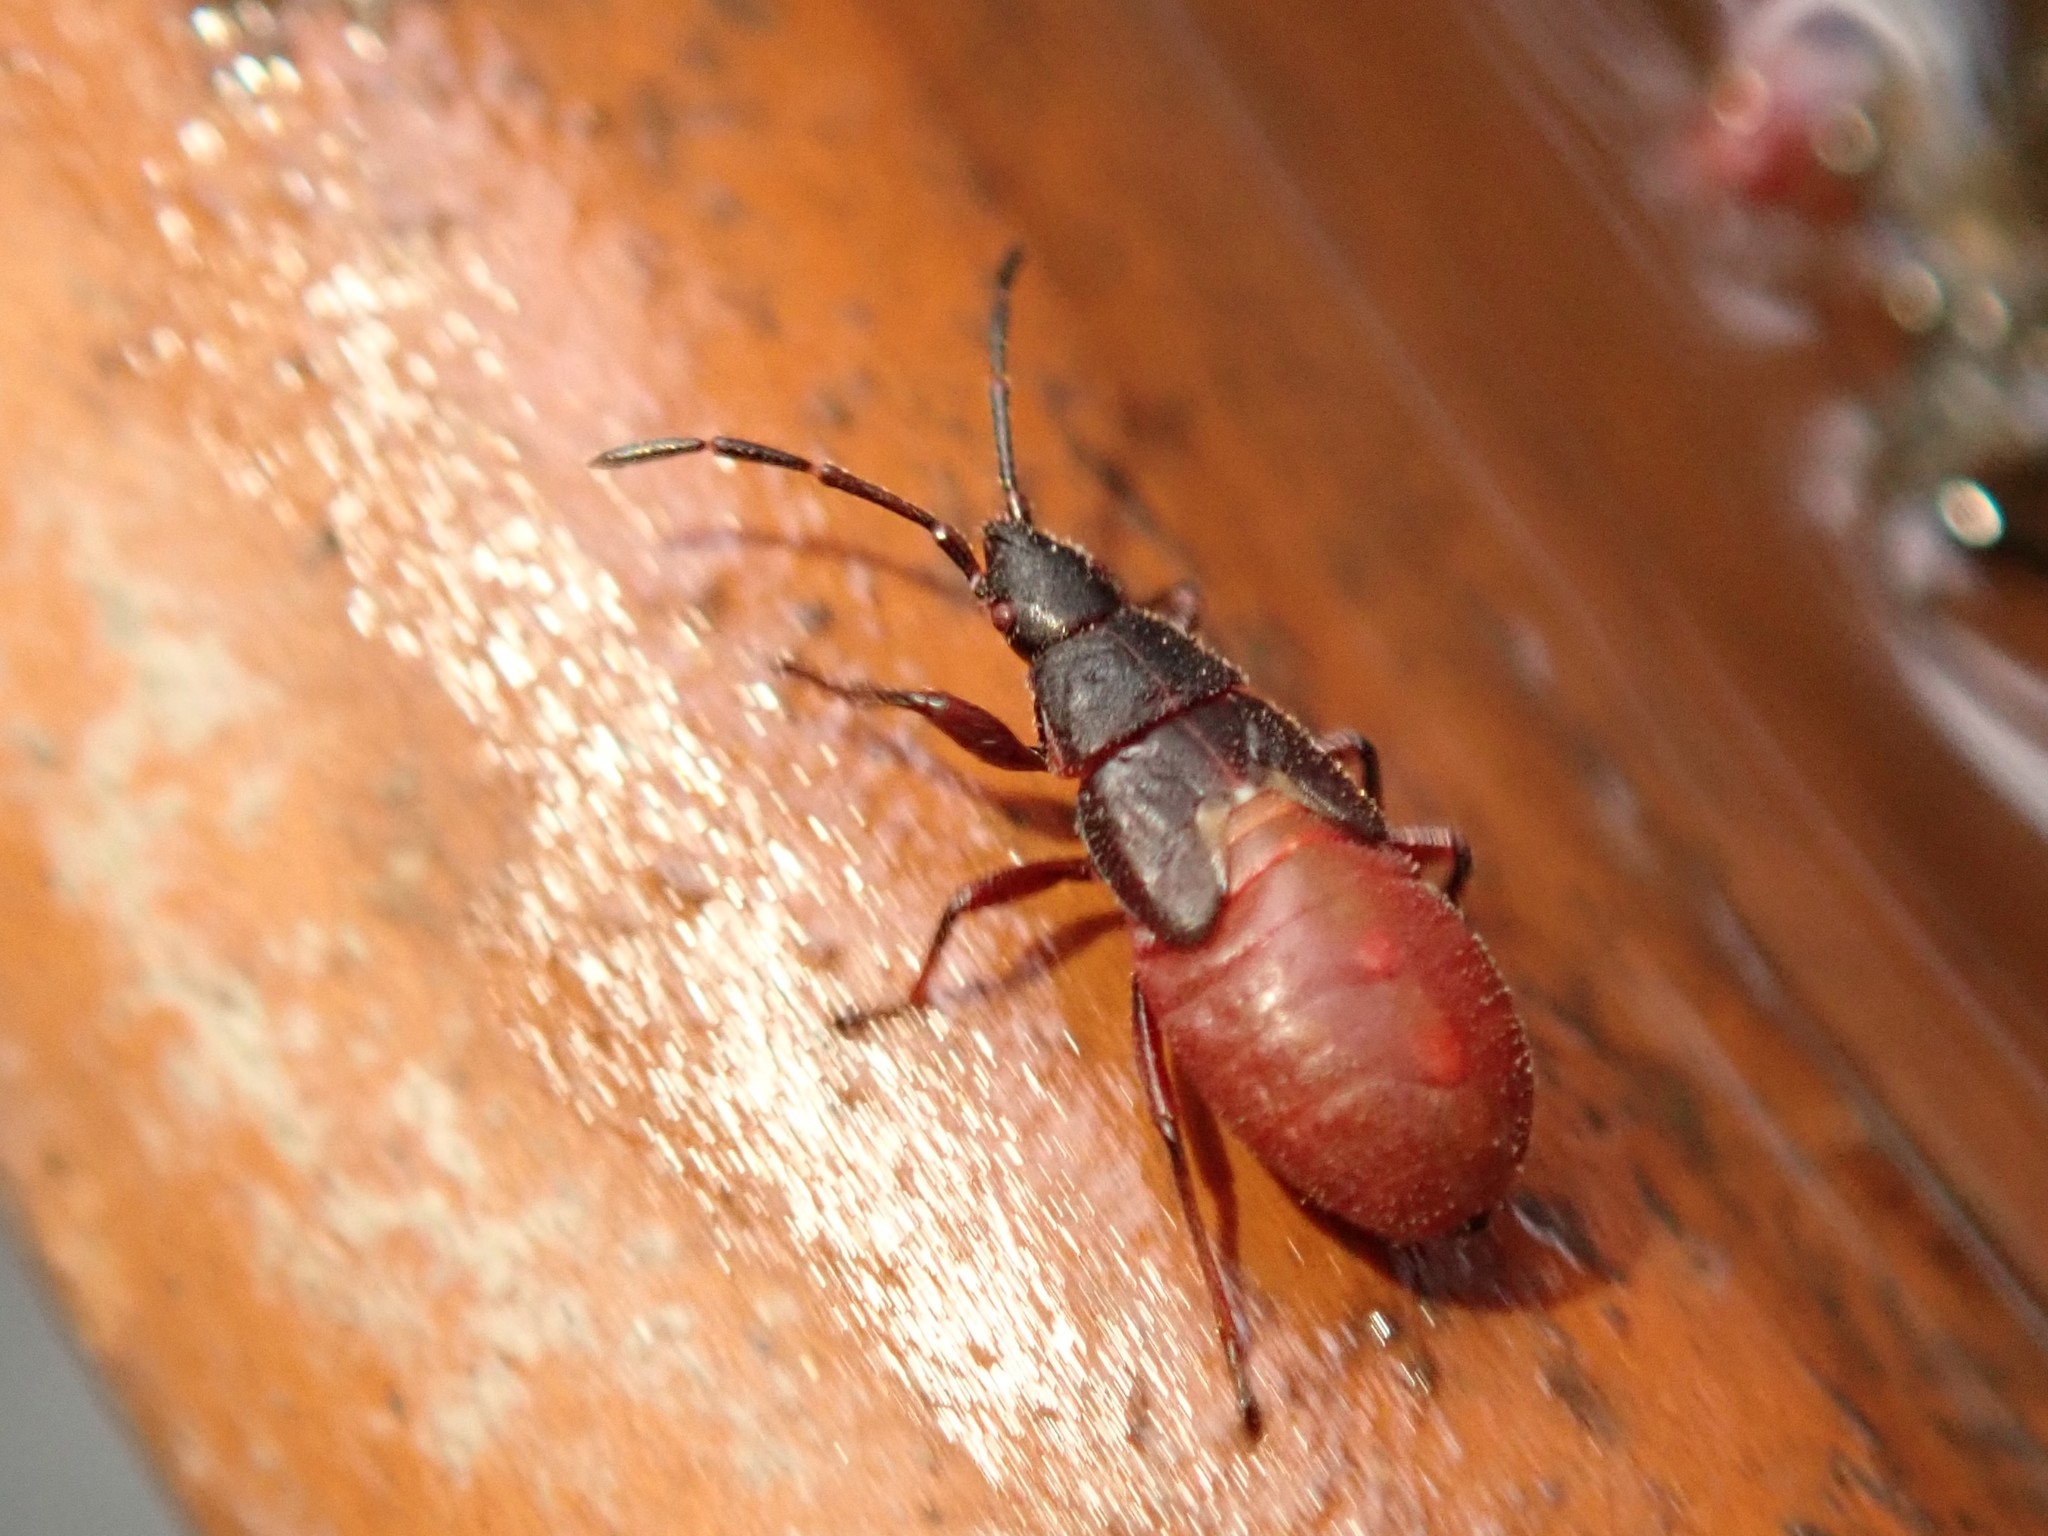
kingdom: Animalia
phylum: Arthropoda
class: Insecta
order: Hemiptera
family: Oxycarenidae
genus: Oxycarenus
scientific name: Oxycarenus lavaterae
